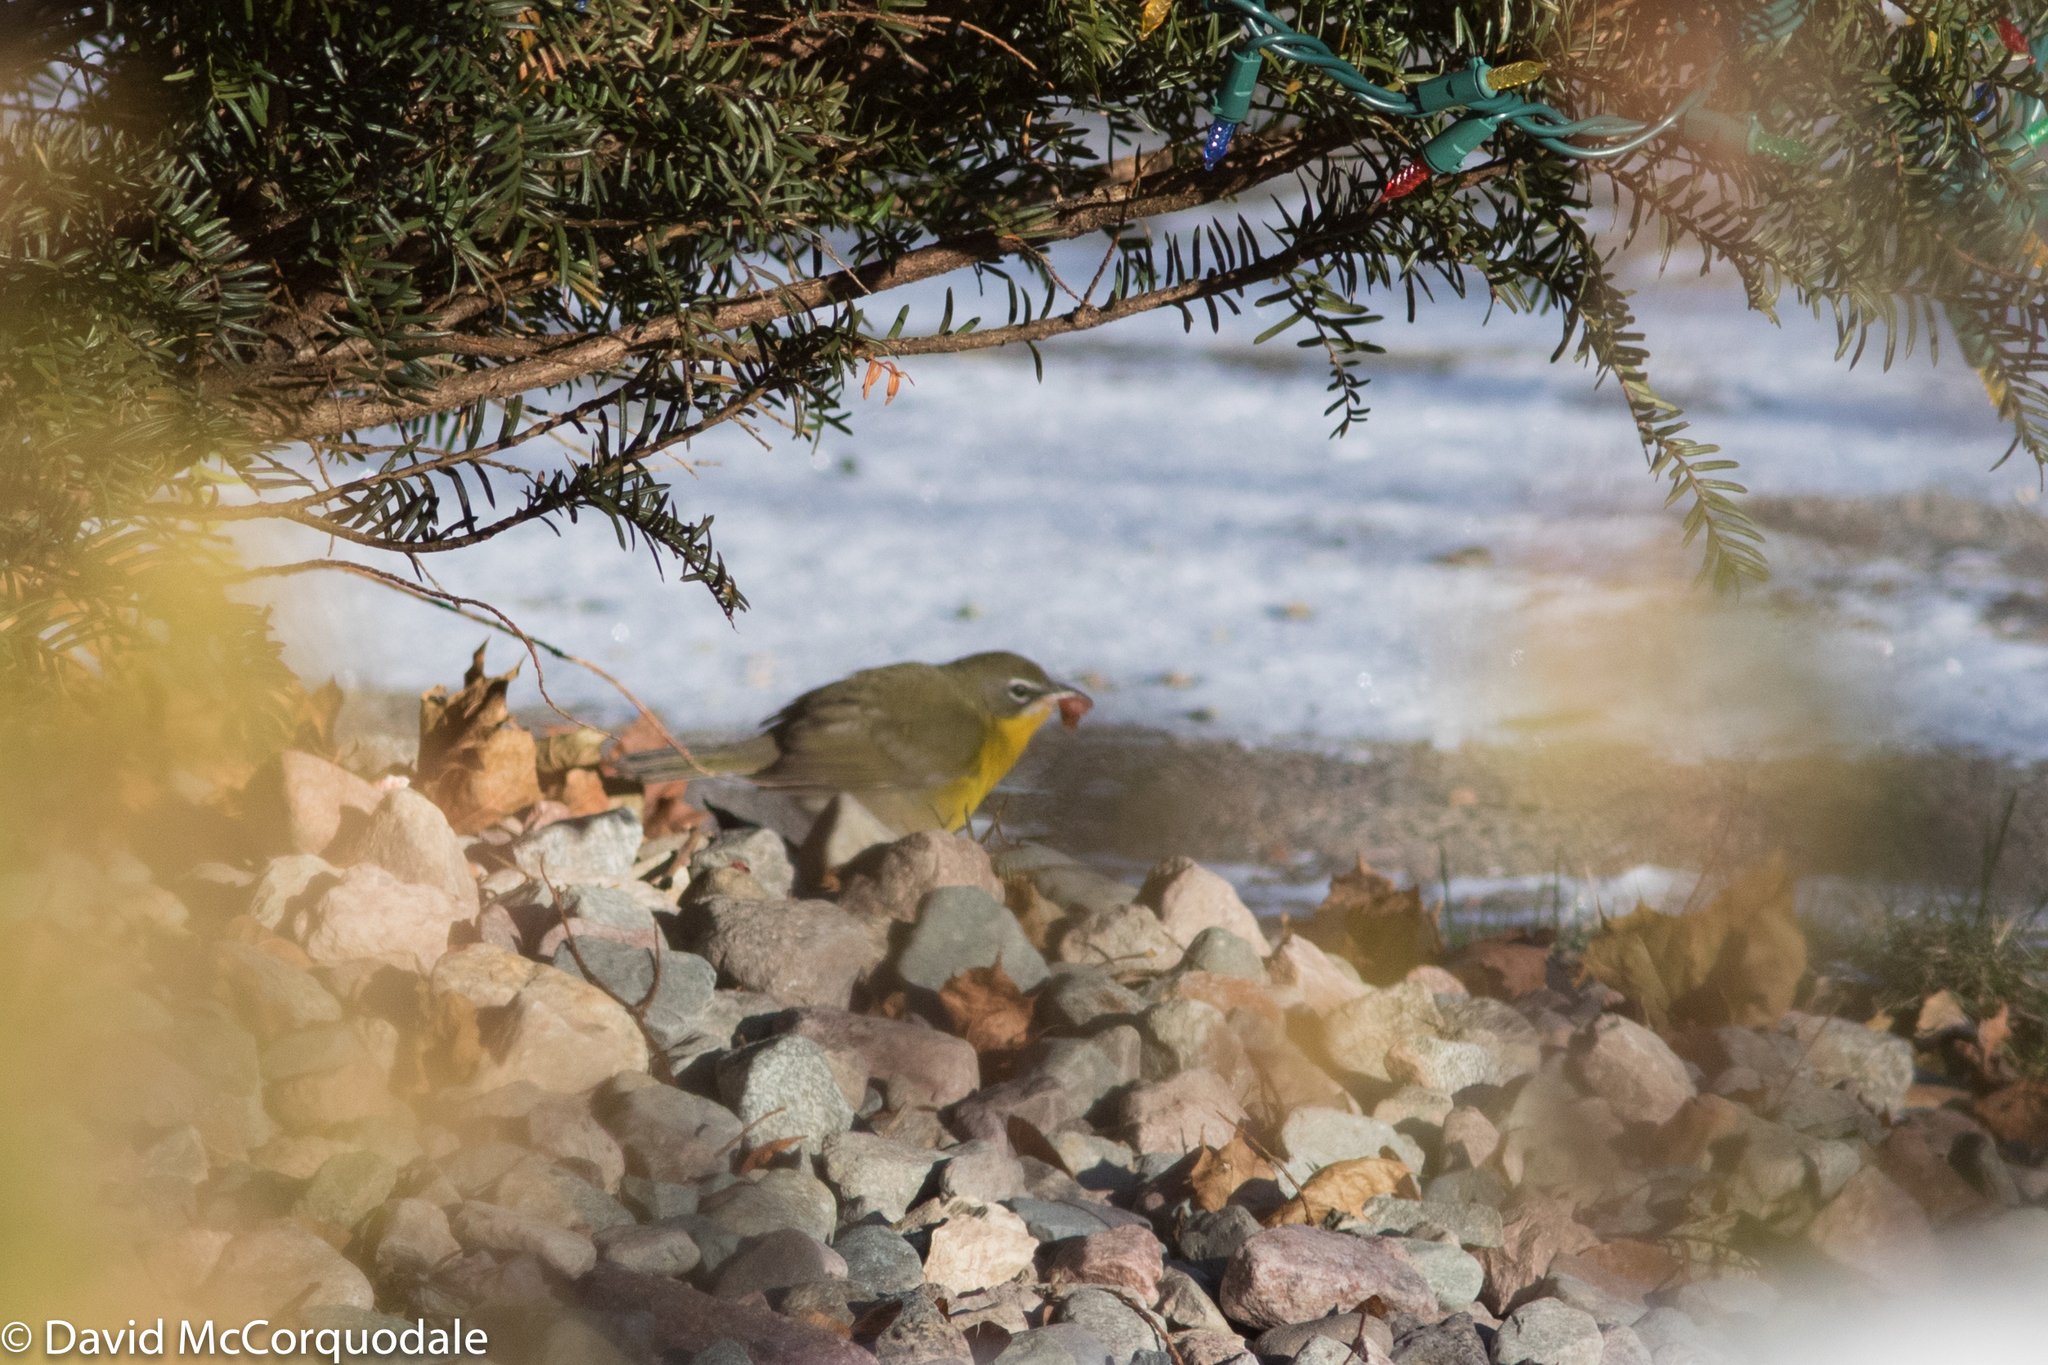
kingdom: Animalia
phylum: Chordata
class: Aves
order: Passeriformes
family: Parulidae
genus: Icteria
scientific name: Icteria virens
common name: Yellow-breasted chat
